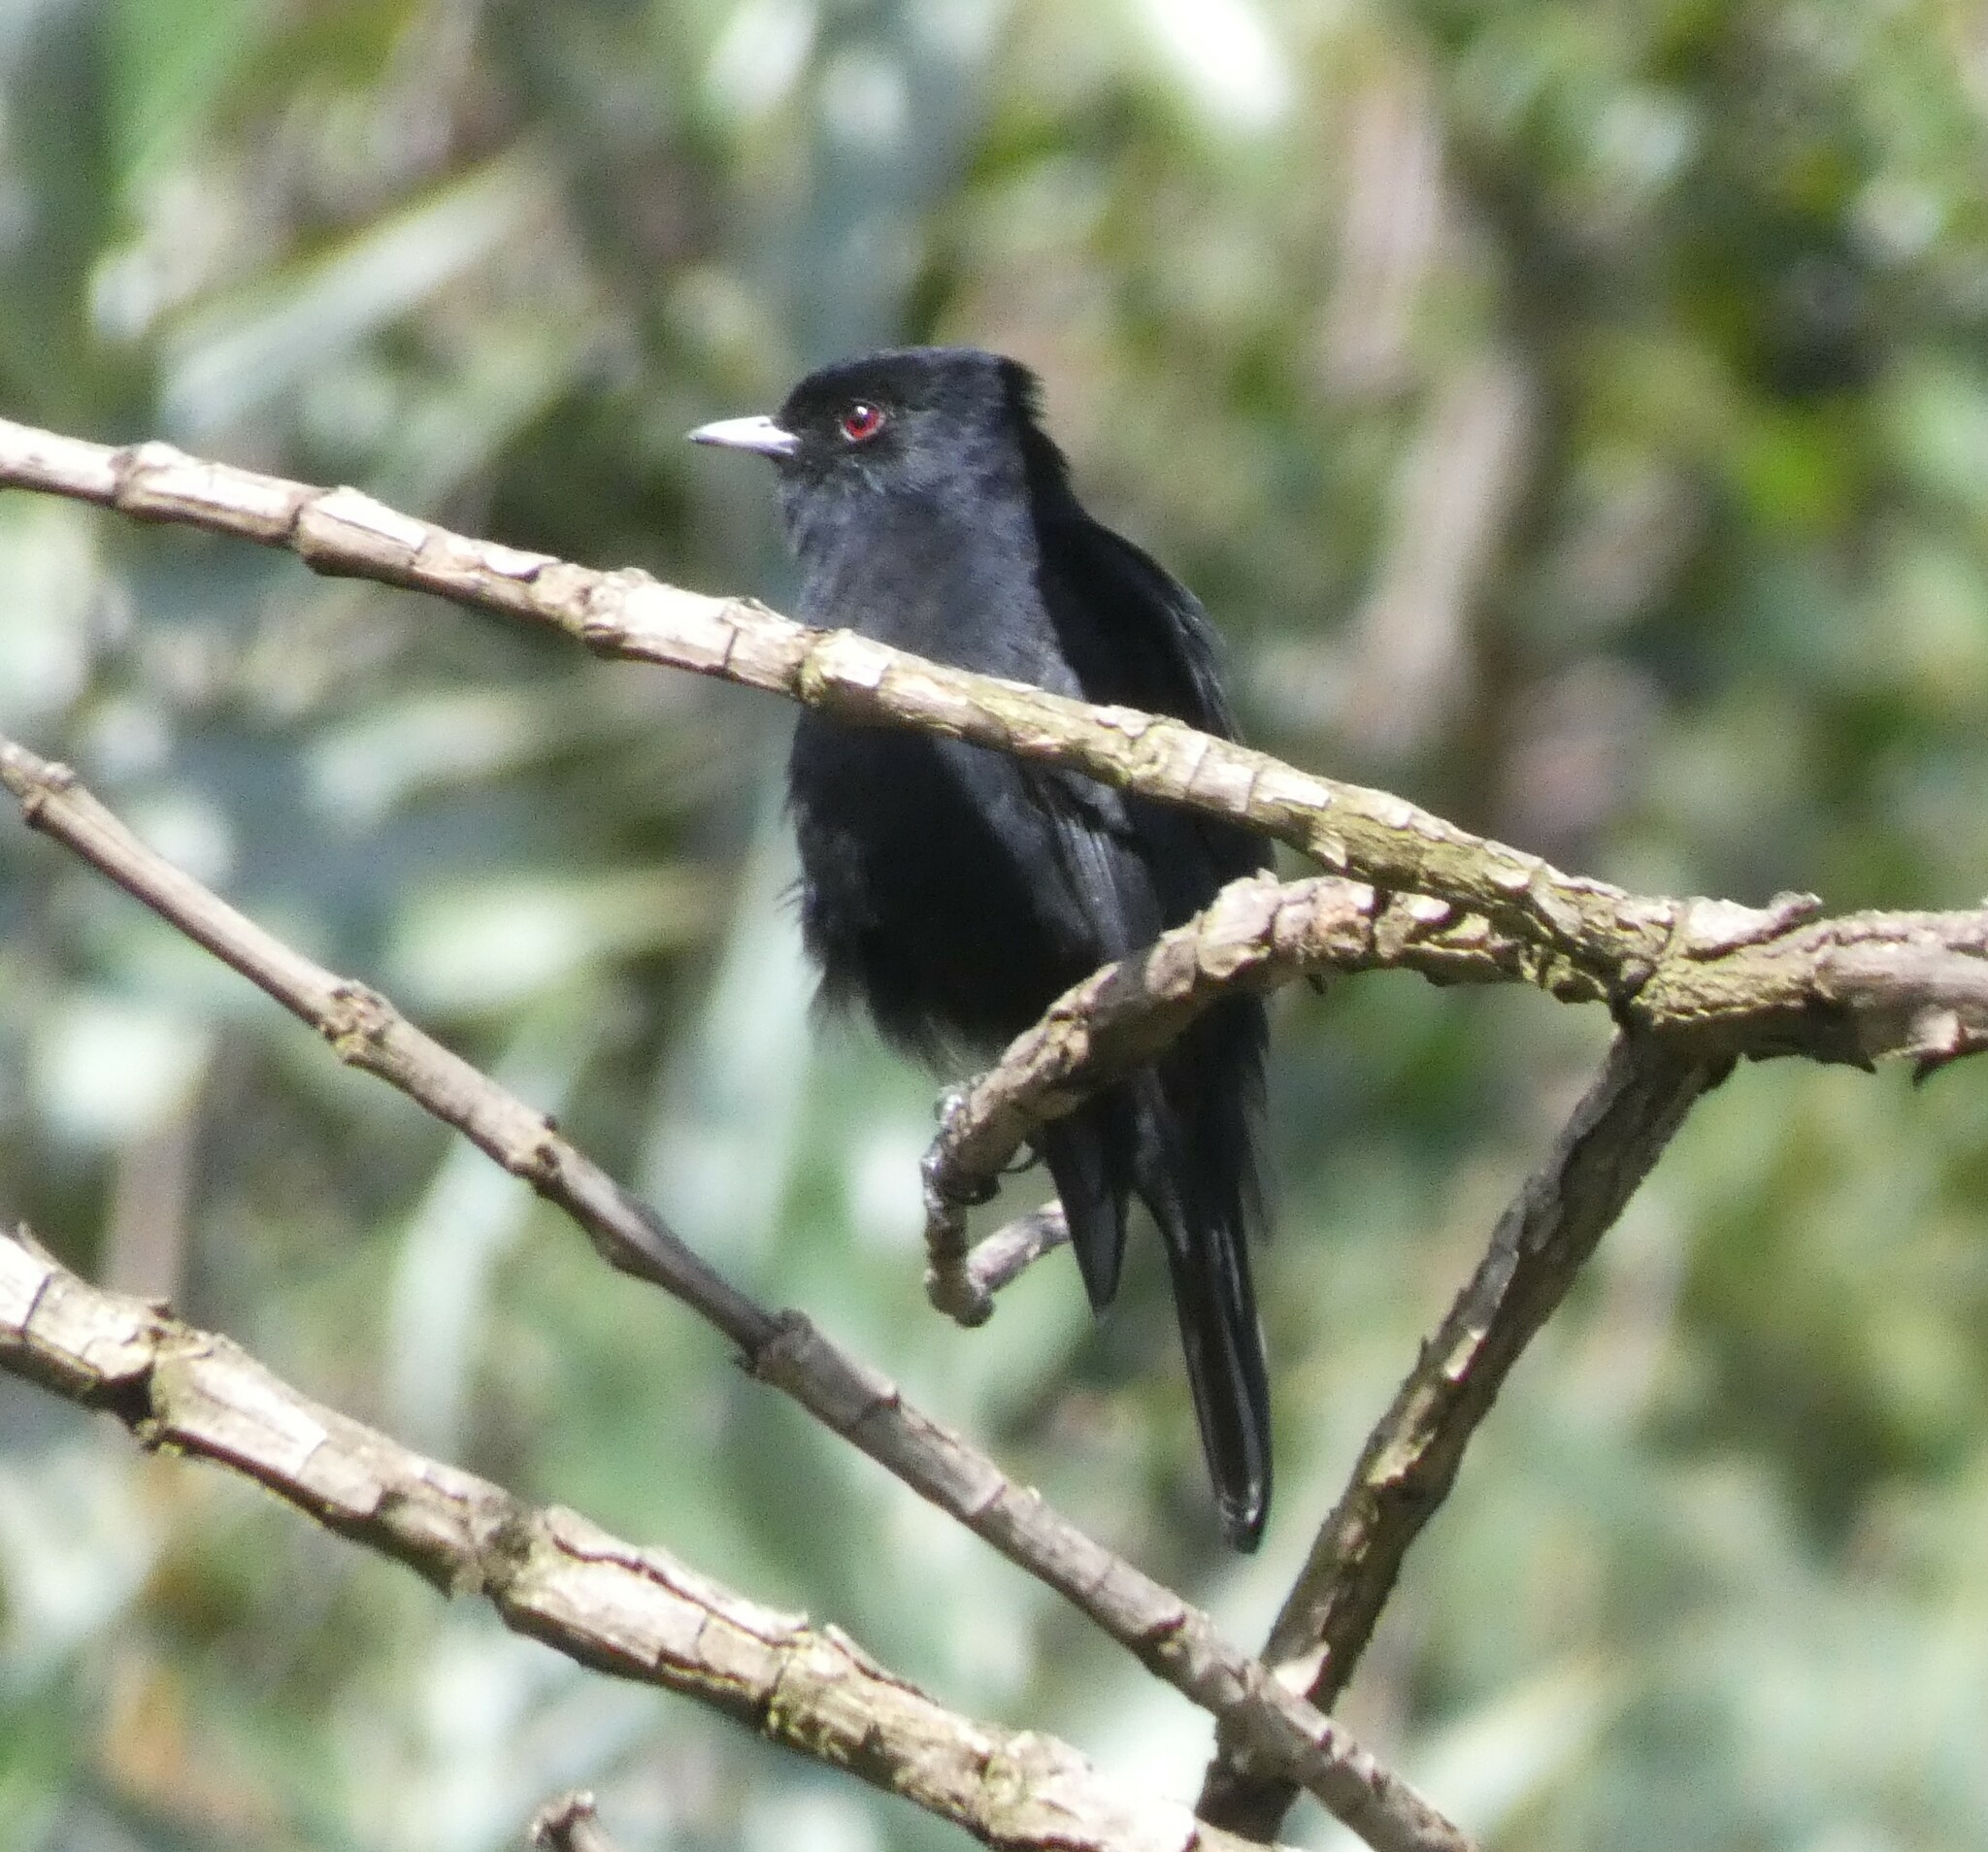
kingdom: Animalia
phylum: Chordata
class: Aves
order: Passeriformes
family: Tyrannidae
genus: Knipolegus
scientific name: Knipolegus nigerrimus
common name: Velvety black tyrant
